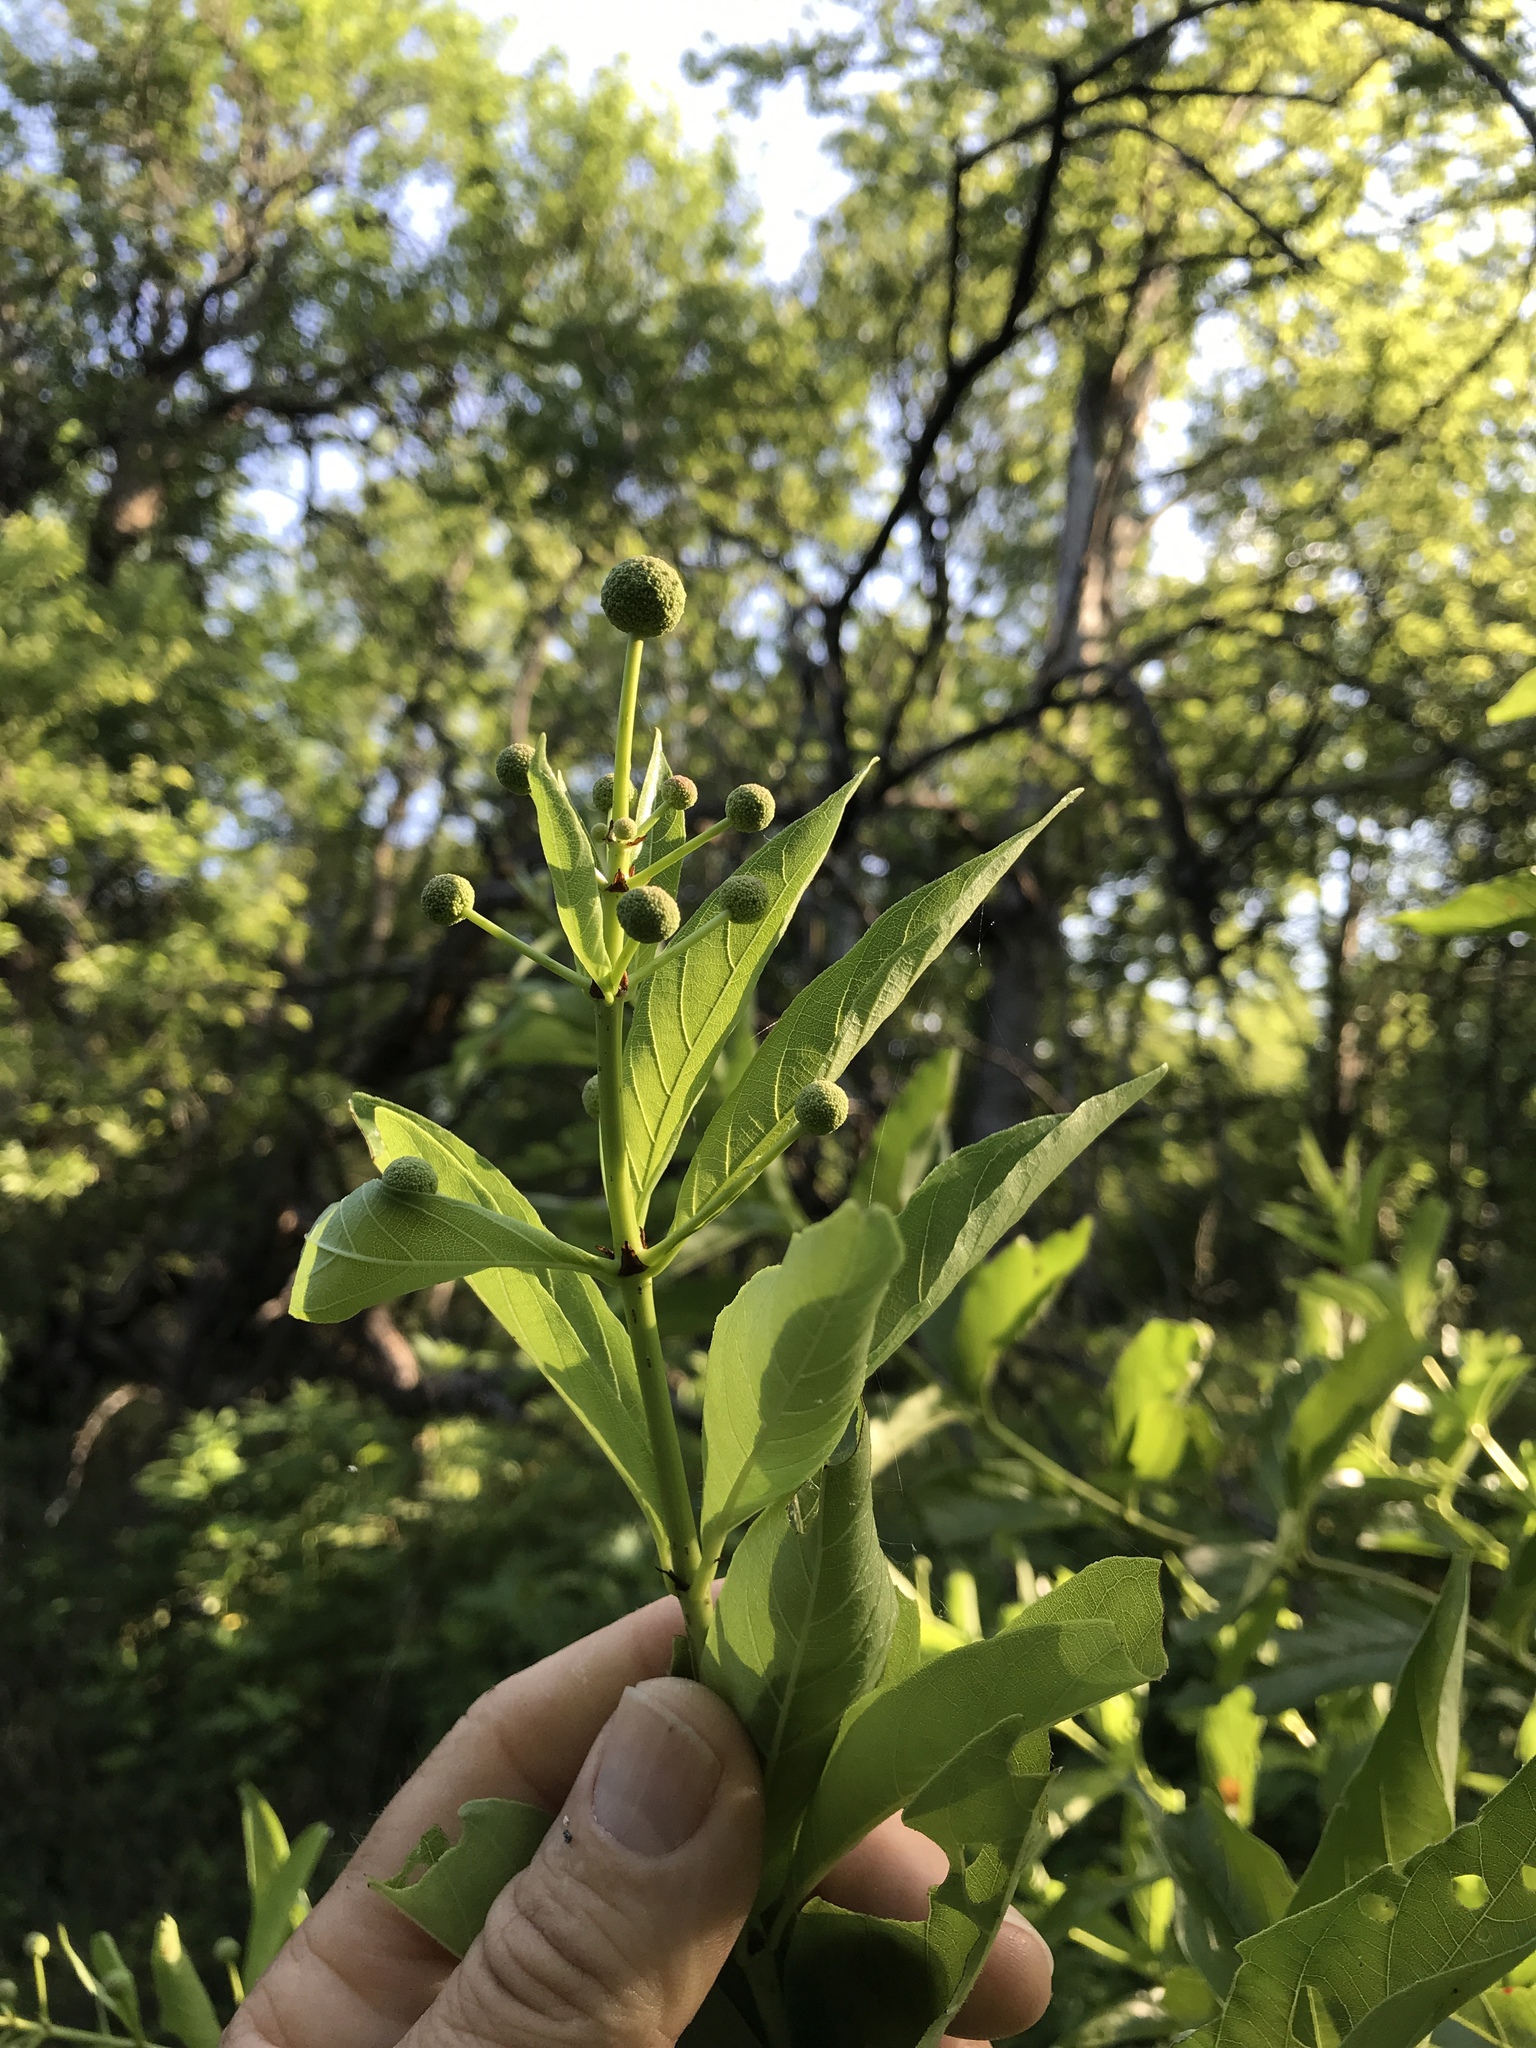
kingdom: Plantae
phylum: Tracheophyta
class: Magnoliopsida
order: Gentianales
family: Rubiaceae
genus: Cephalanthus
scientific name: Cephalanthus occidentalis
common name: Button-willow
